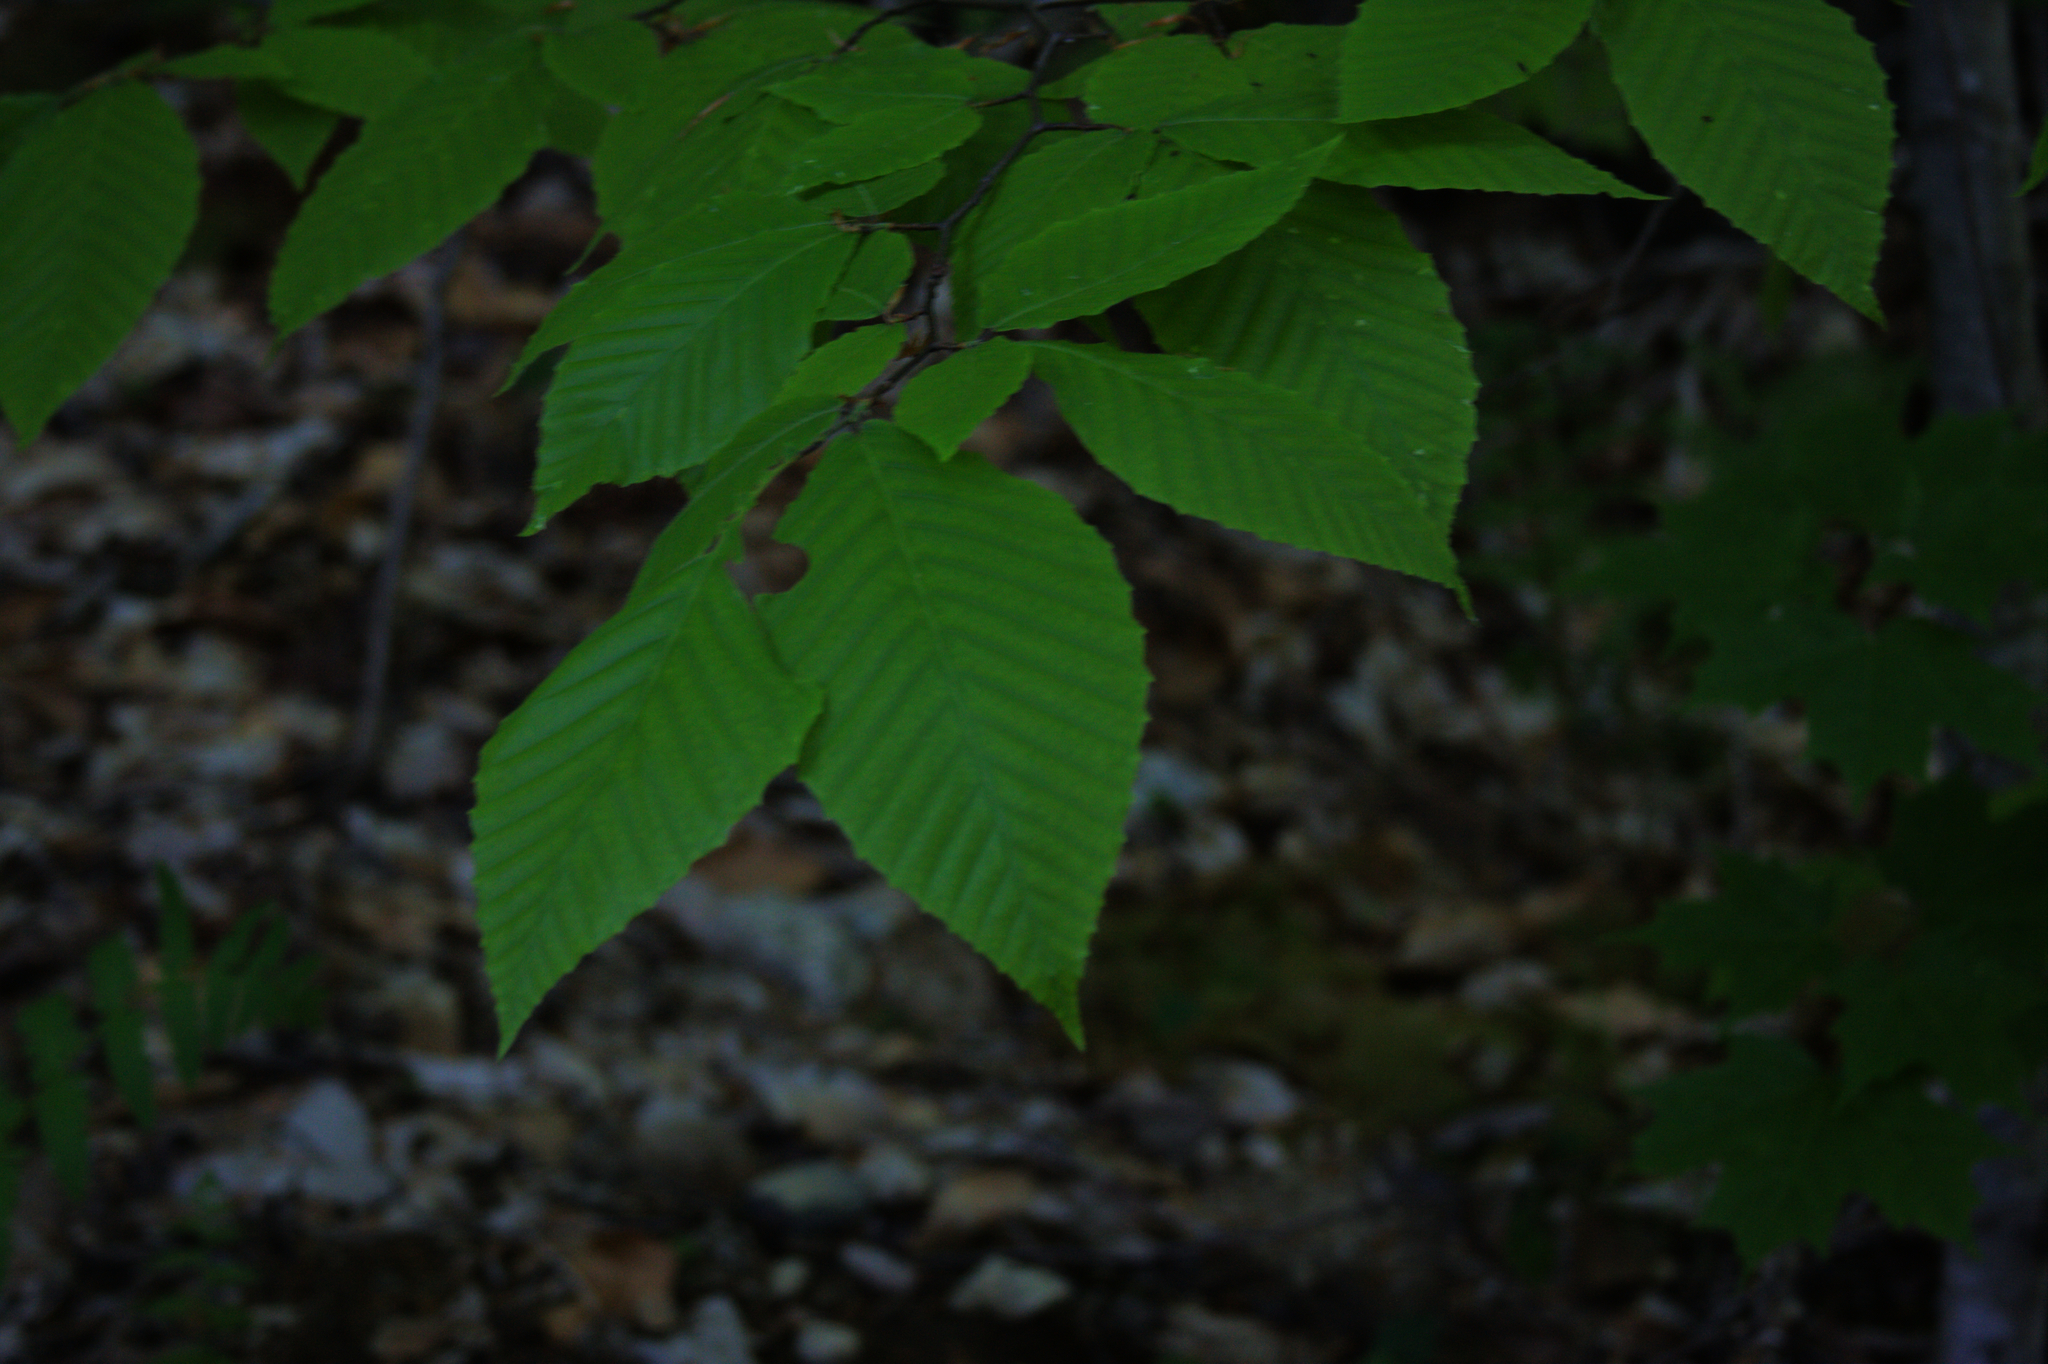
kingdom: Plantae
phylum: Tracheophyta
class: Magnoliopsida
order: Fagales
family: Fagaceae
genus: Fagus
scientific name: Fagus grandifolia
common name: American beech
